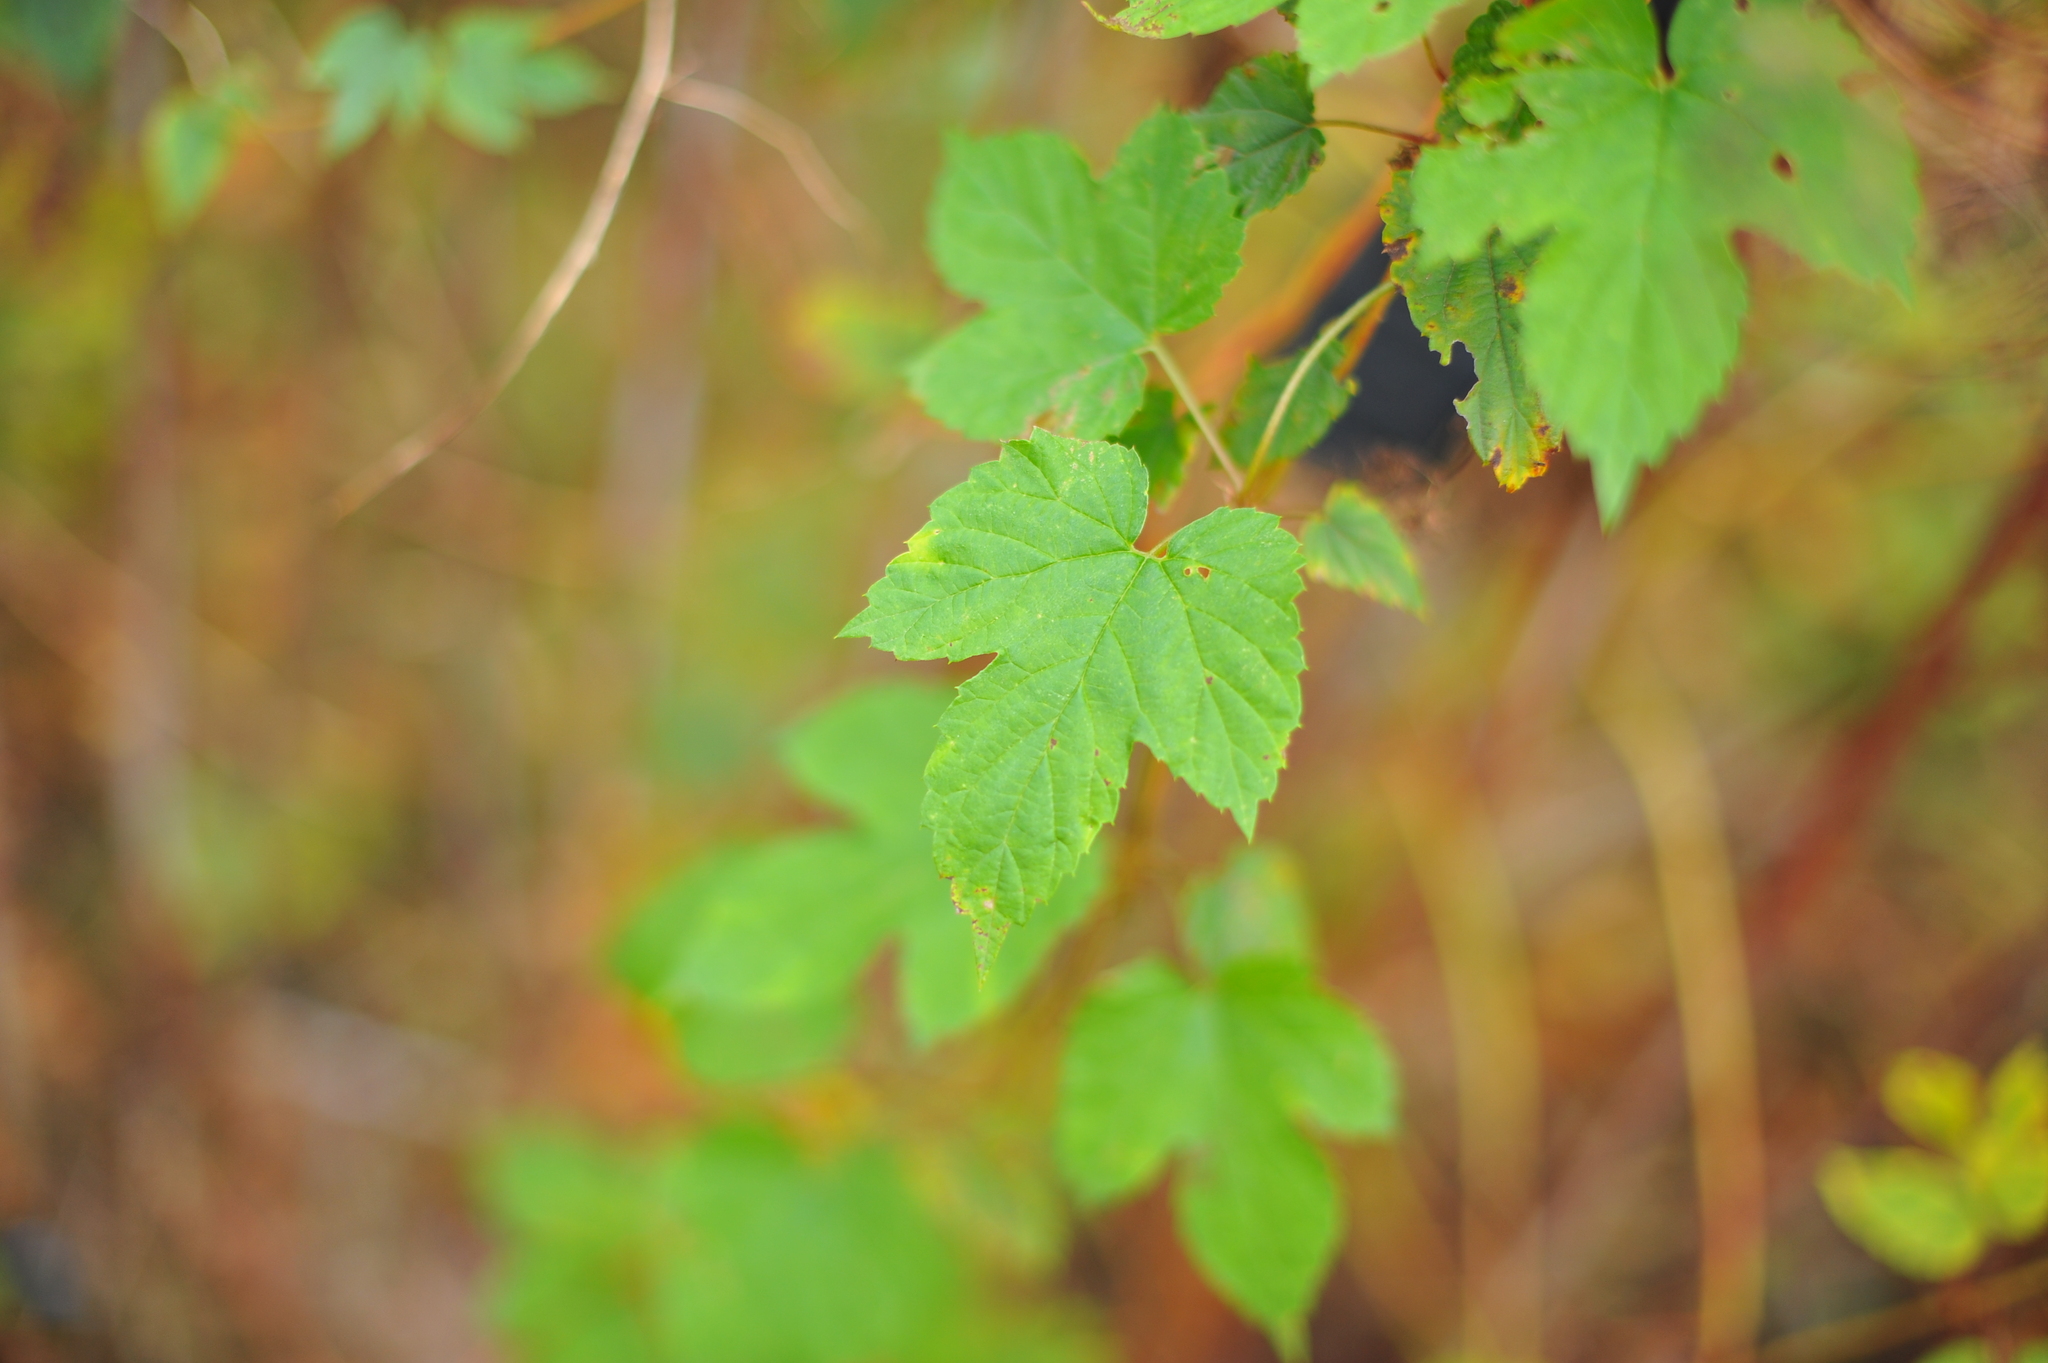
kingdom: Plantae
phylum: Tracheophyta
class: Magnoliopsida
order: Rosales
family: Cannabaceae
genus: Humulus
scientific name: Humulus lupulus
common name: Hop
